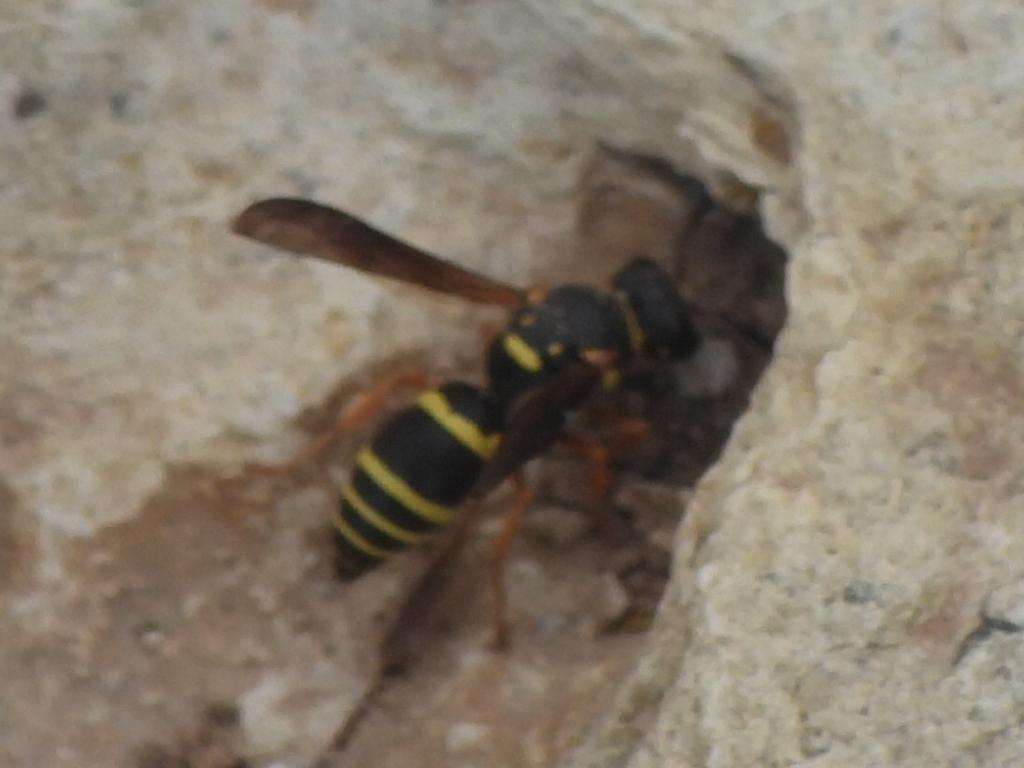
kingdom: Animalia
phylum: Arthropoda
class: Insecta
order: Hymenoptera
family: Eumenidae
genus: Euodynerus
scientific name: Euodynerus foraminatus
